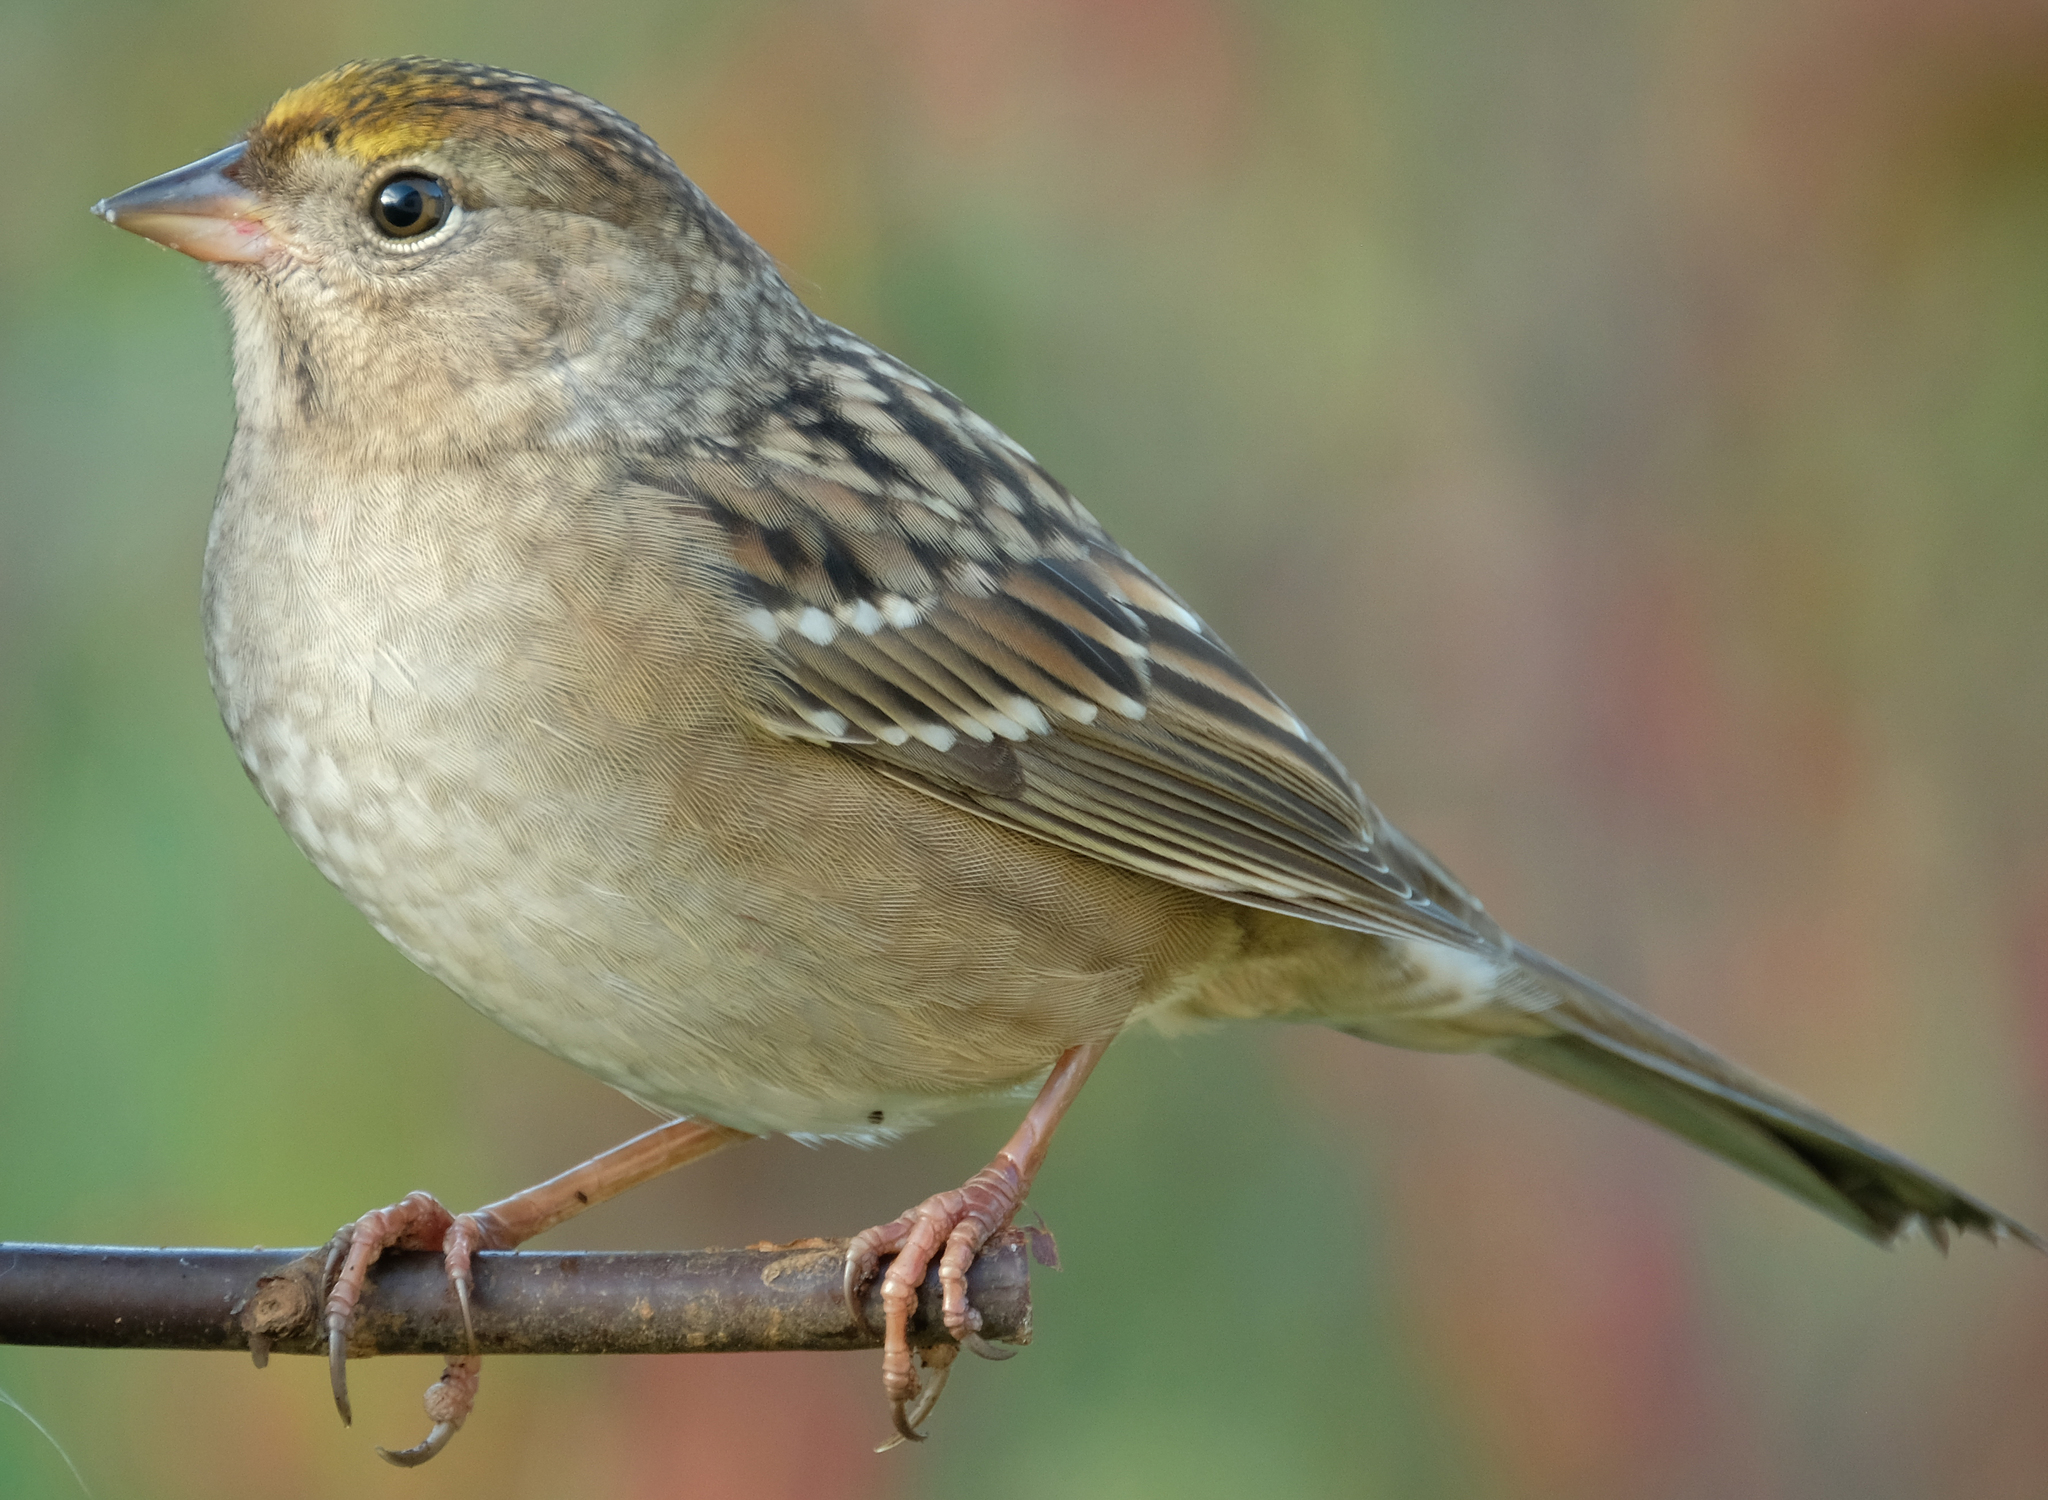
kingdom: Animalia
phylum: Chordata
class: Aves
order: Passeriformes
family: Passerellidae
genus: Zonotrichia
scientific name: Zonotrichia atricapilla
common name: Golden-crowned sparrow
